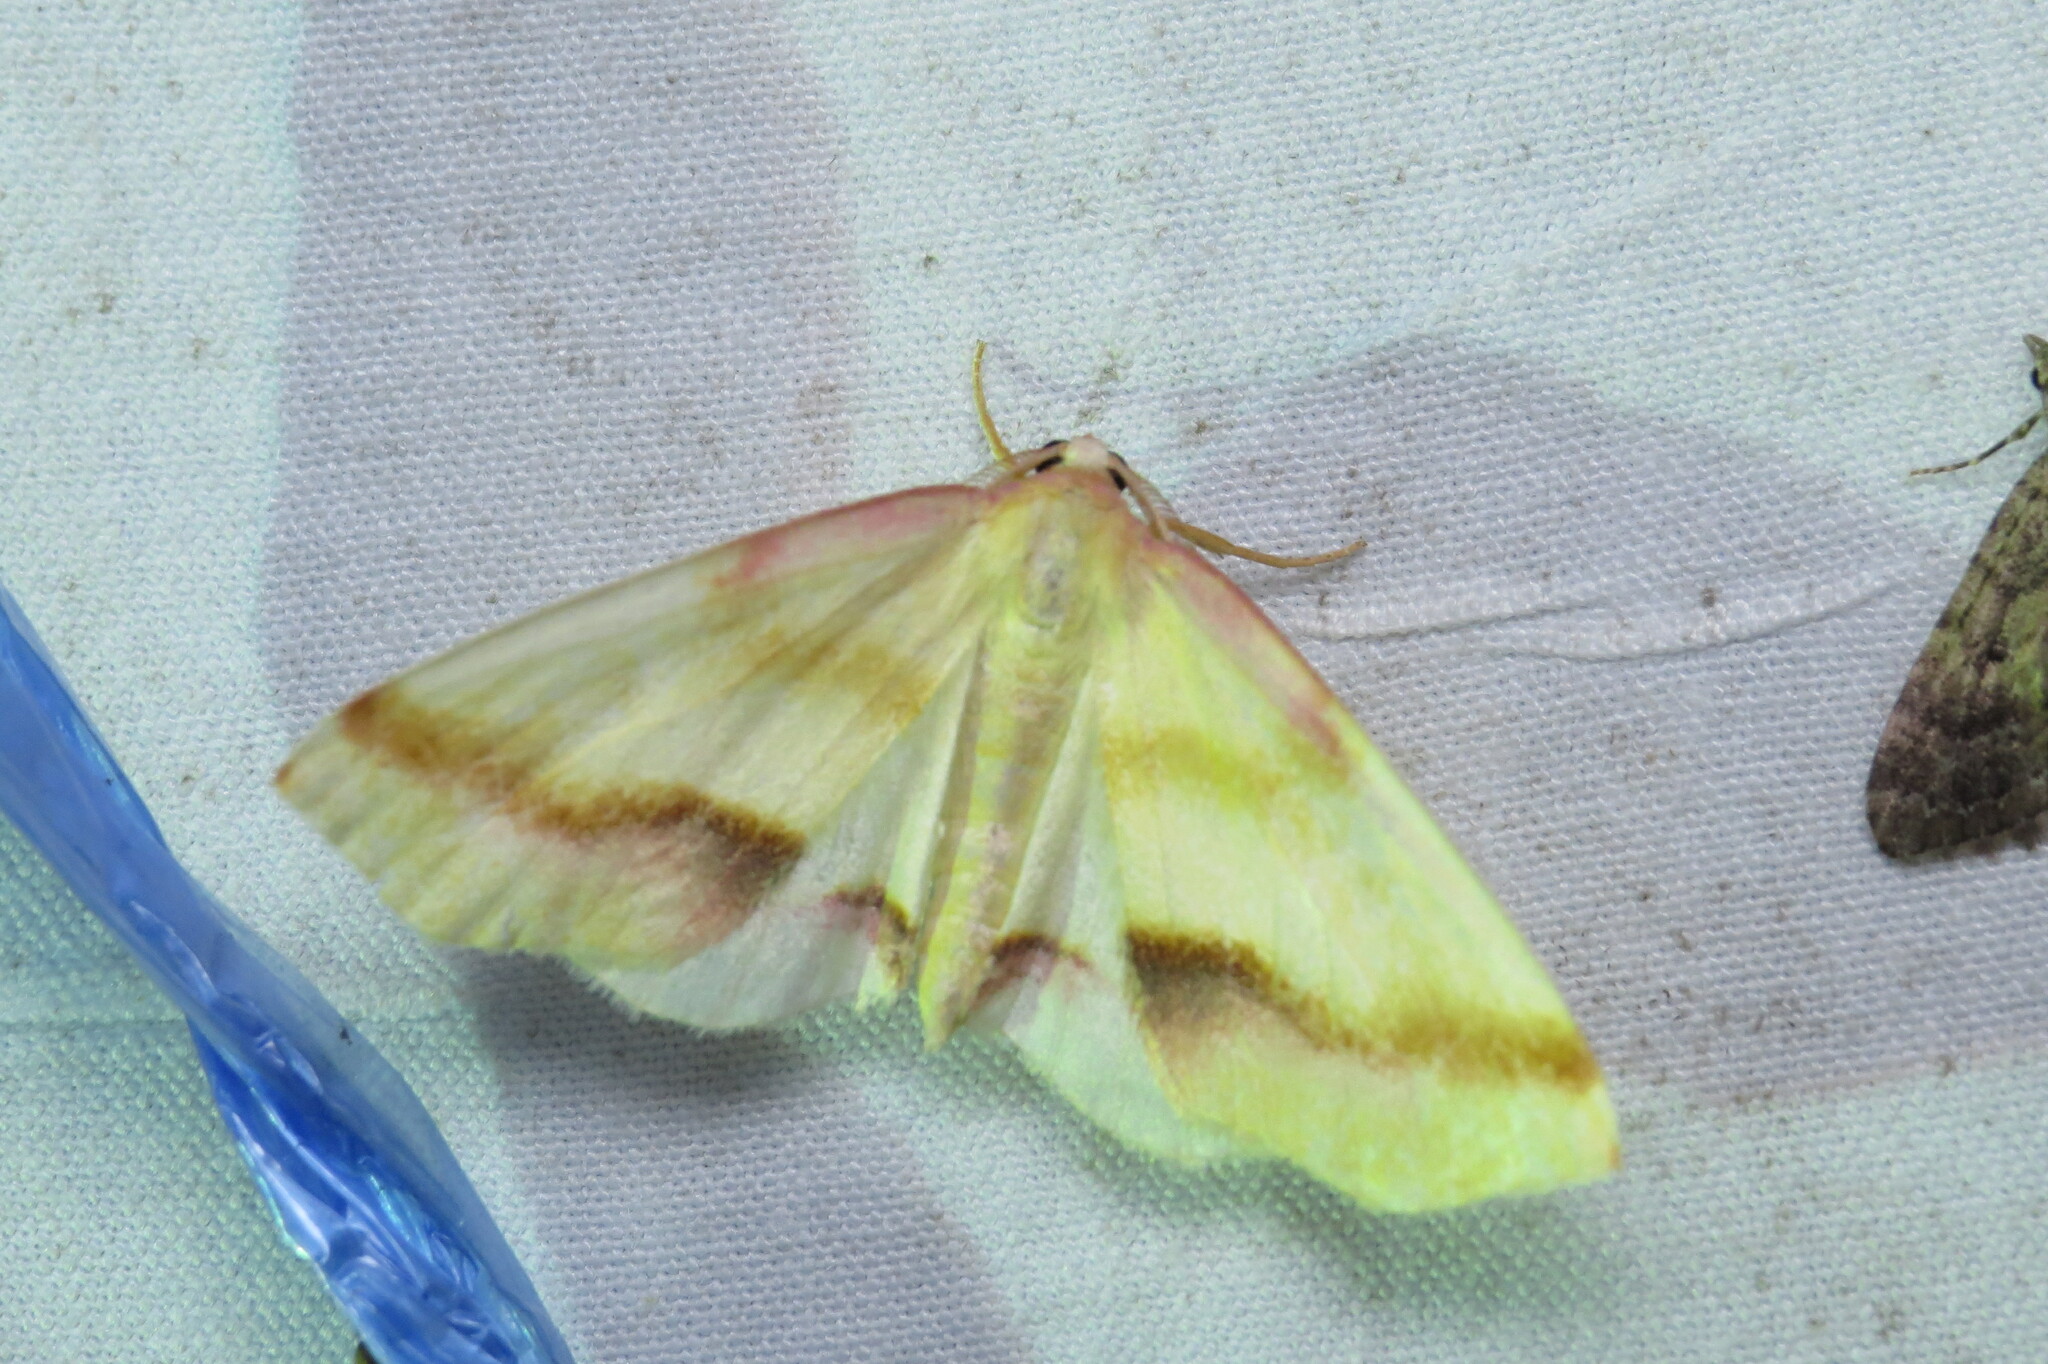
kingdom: Animalia
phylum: Arthropoda
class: Insecta
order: Lepidoptera
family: Geometridae
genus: Plagodis
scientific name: Plagodis serinaria
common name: Lemon plagodis
